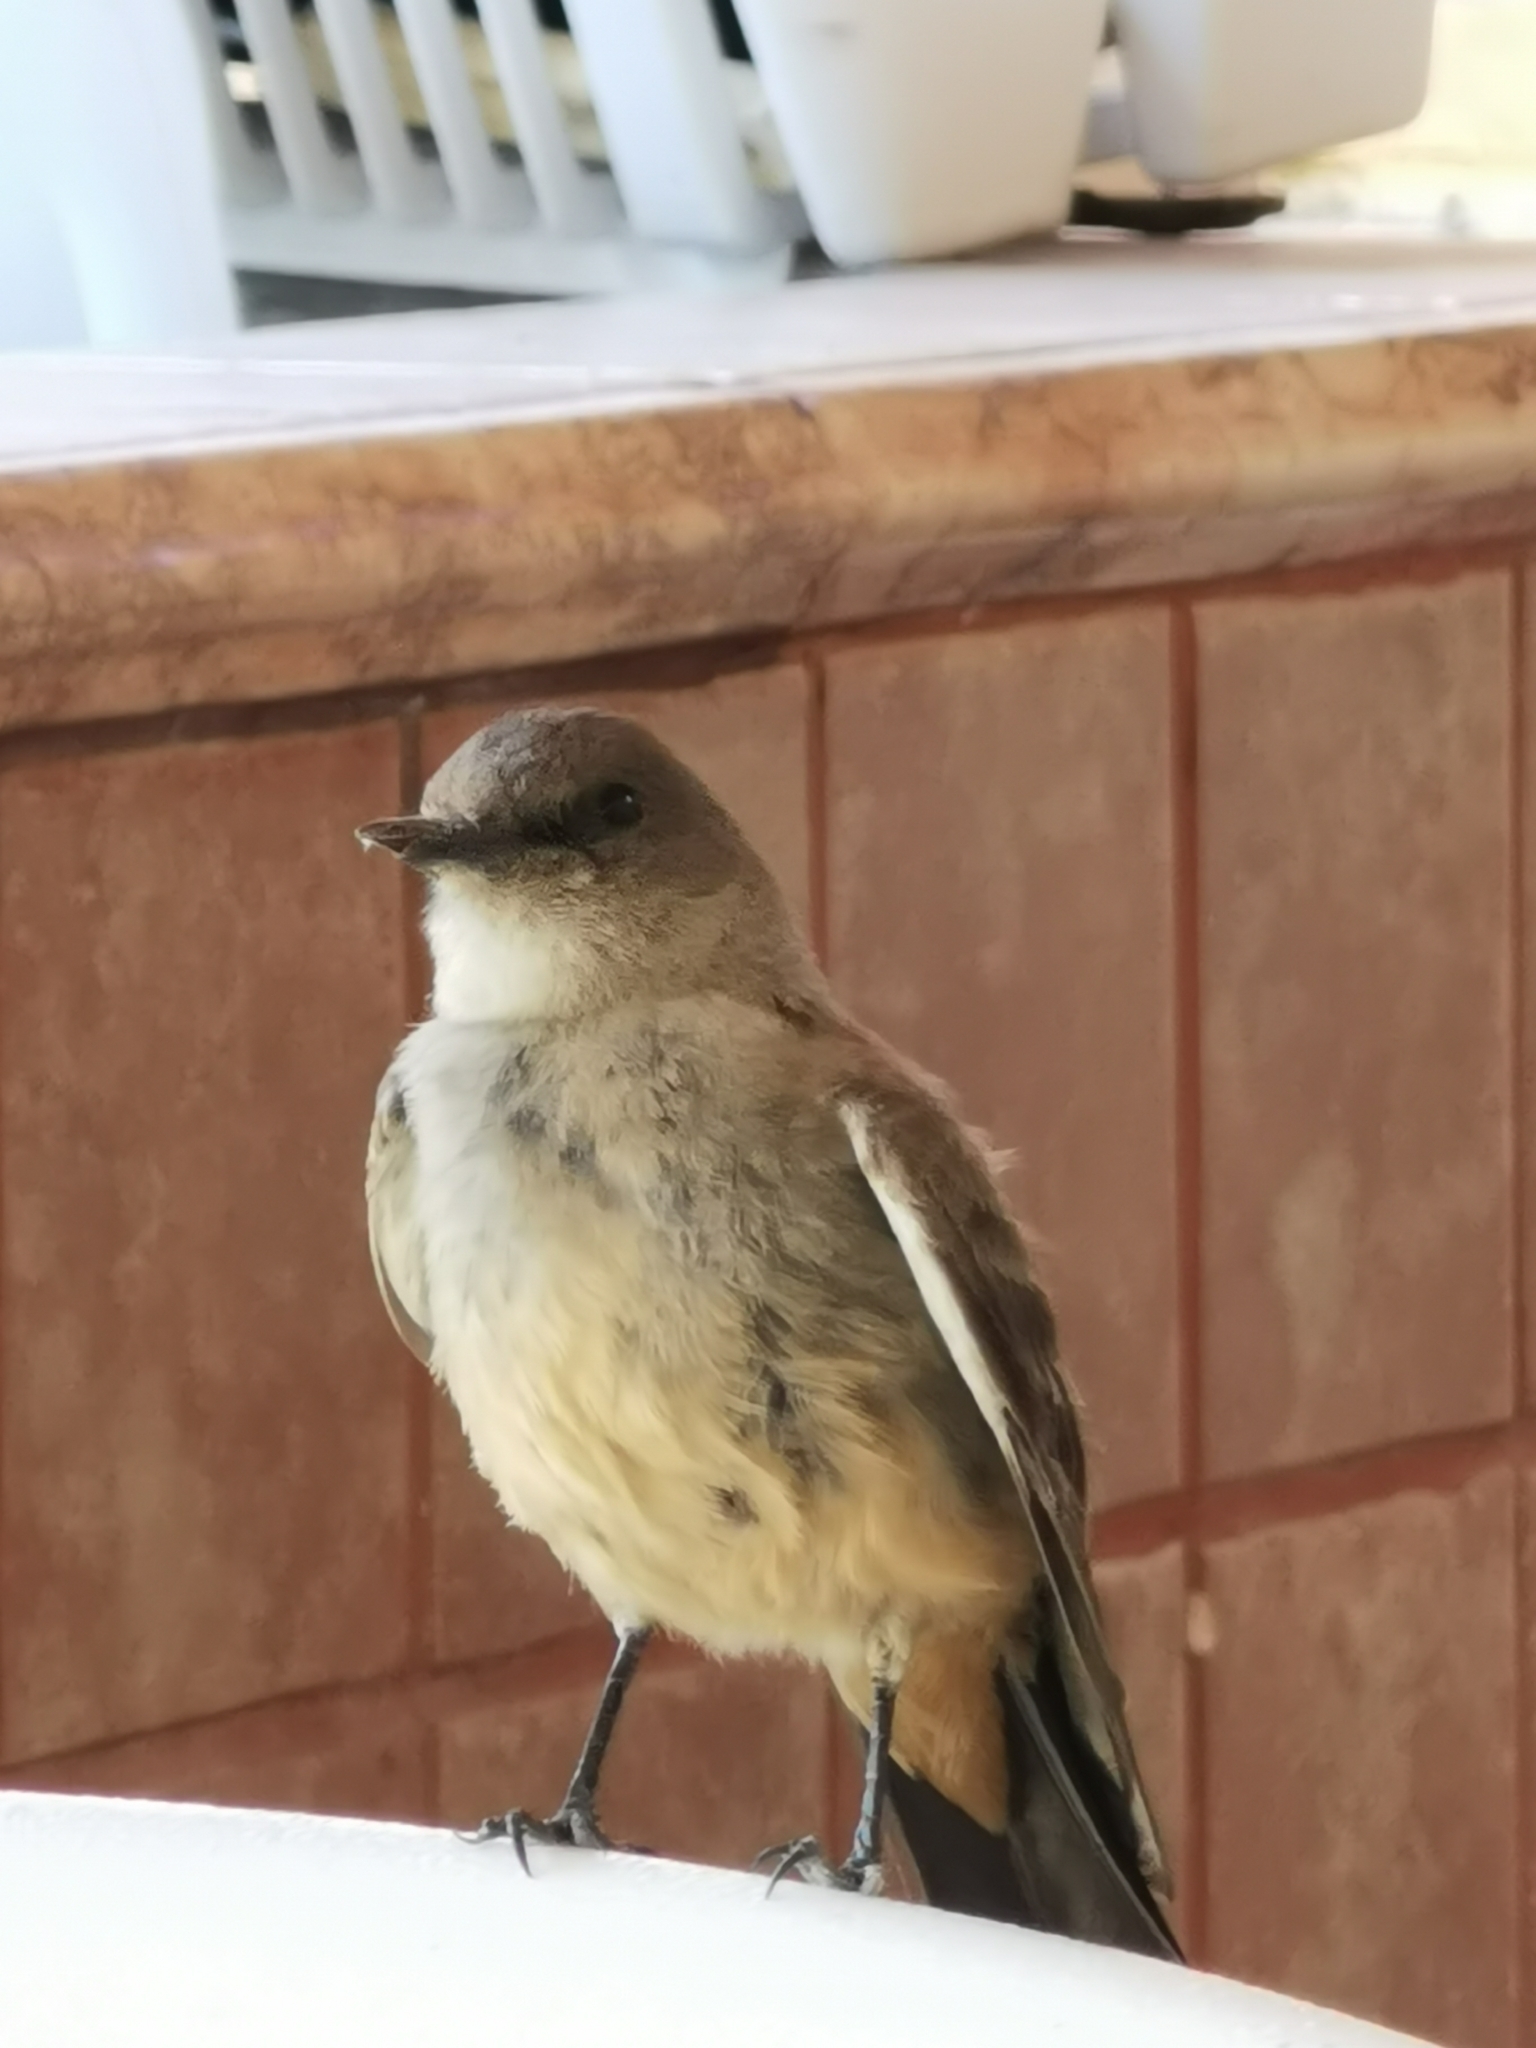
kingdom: Animalia
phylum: Chordata
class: Aves
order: Passeriformes
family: Tyrannidae
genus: Sayornis
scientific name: Sayornis saya
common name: Say's phoebe
